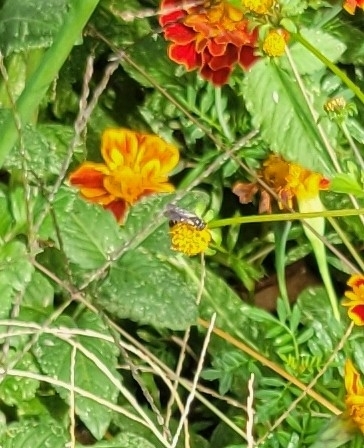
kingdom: Animalia
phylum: Arthropoda
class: Insecta
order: Hymenoptera
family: Halictidae
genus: Lasioglossum
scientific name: Lasioglossum fuscipenne
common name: Brown-winged sweat bee
